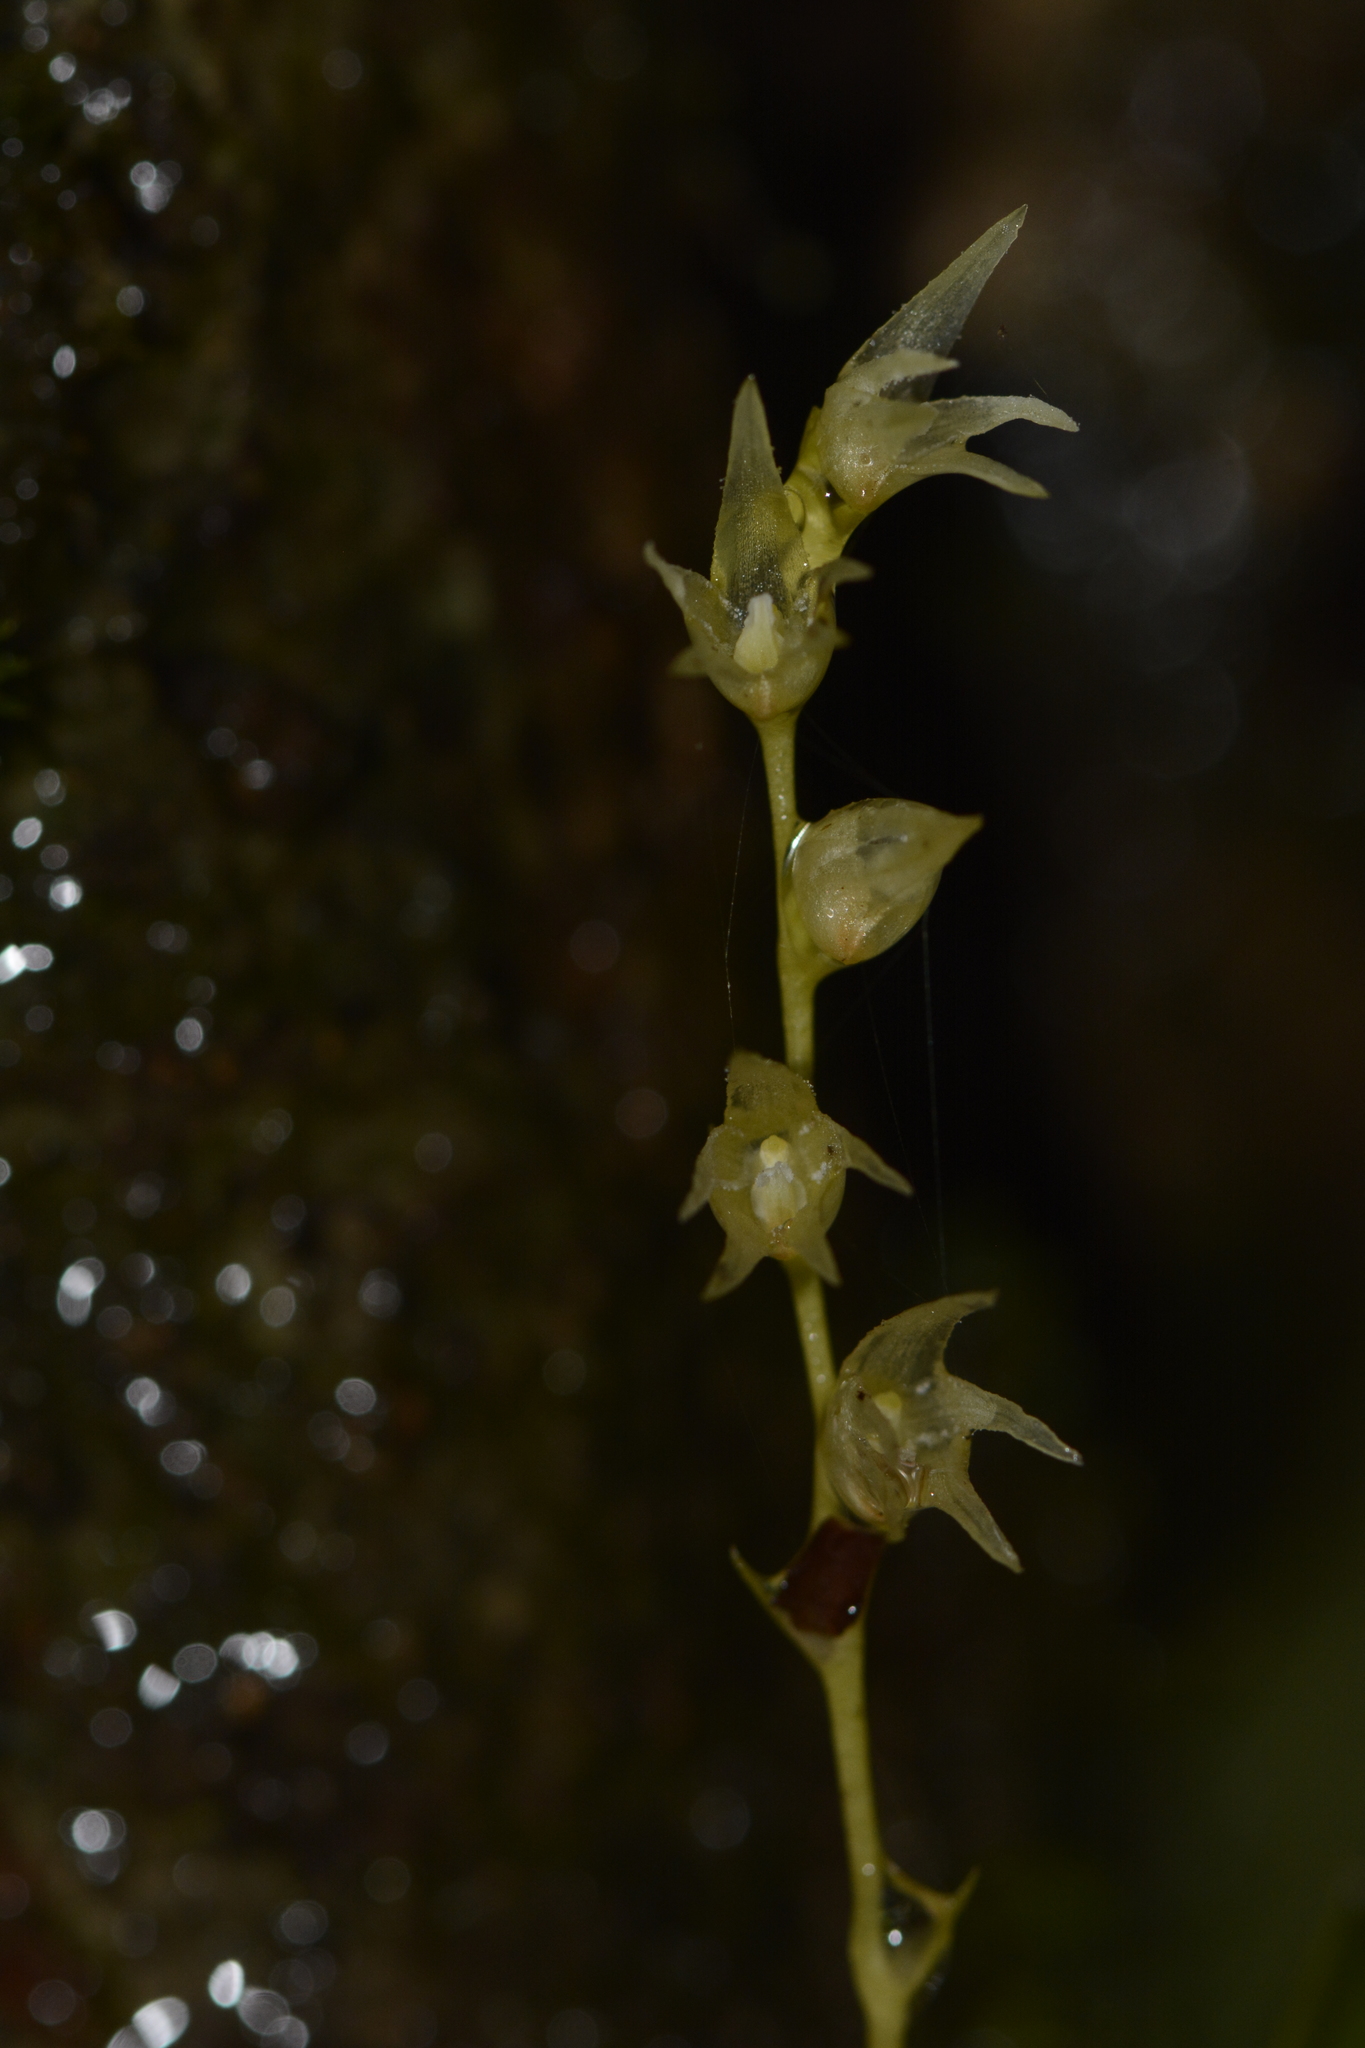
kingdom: Plantae
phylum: Tracheophyta
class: Liliopsida
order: Asparagales
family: Orchidaceae
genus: Porpax
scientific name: Porpax filiformis
